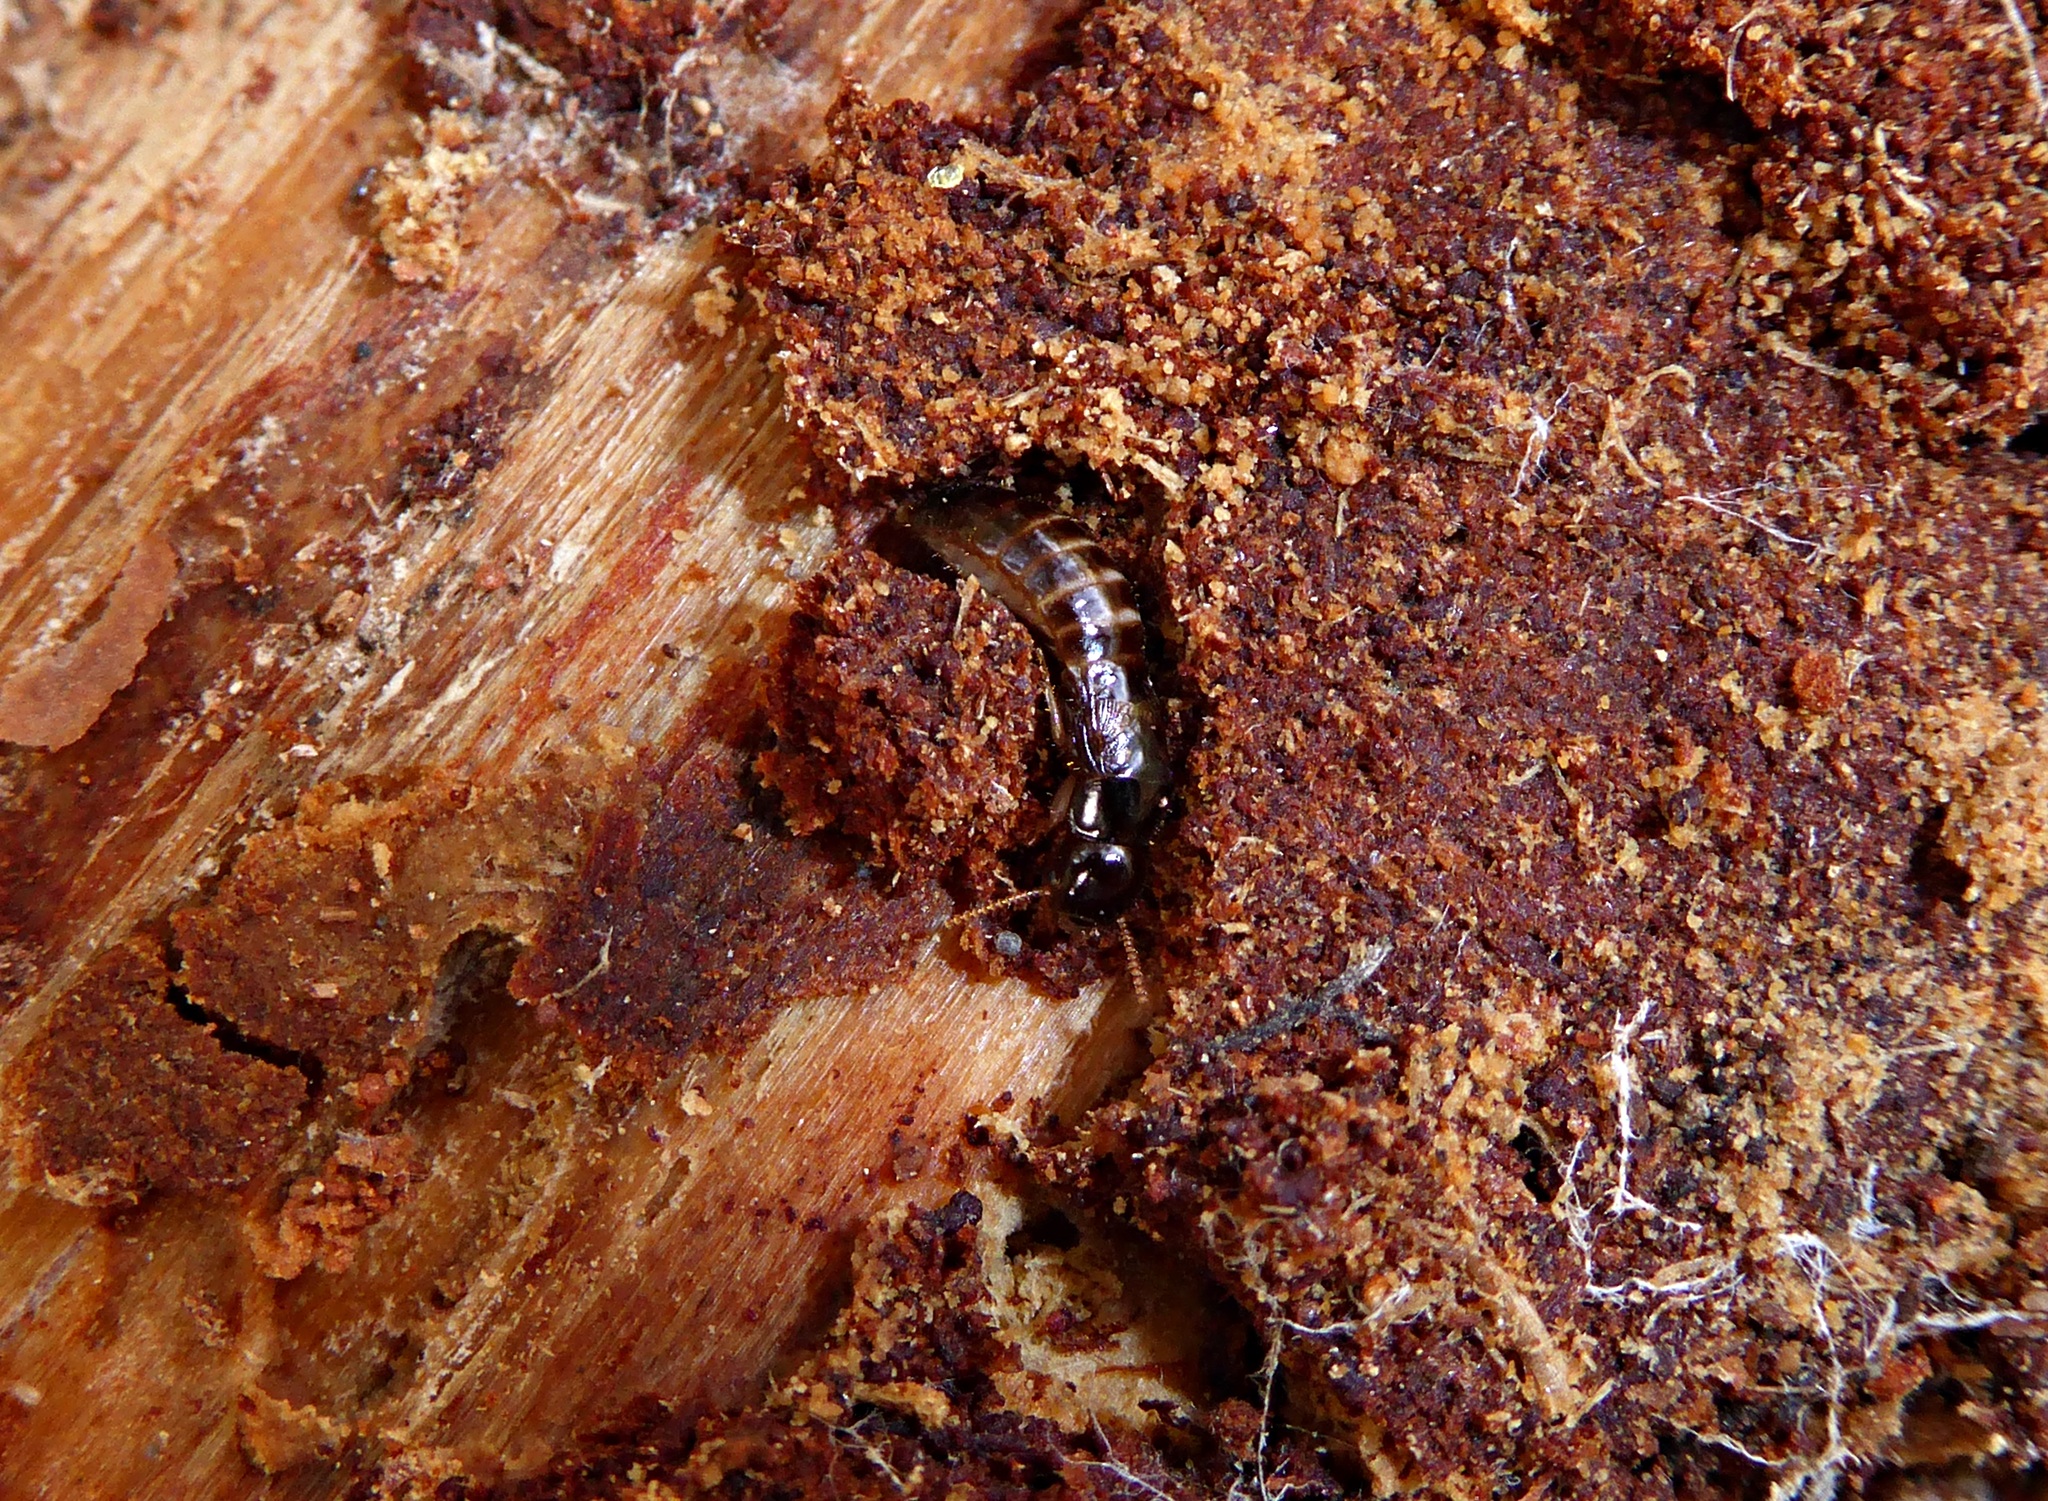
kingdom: Animalia
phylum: Arthropoda
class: Insecta
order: Blattodea
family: Kalotermitidae
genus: Kalotermes
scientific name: Kalotermes dispar
